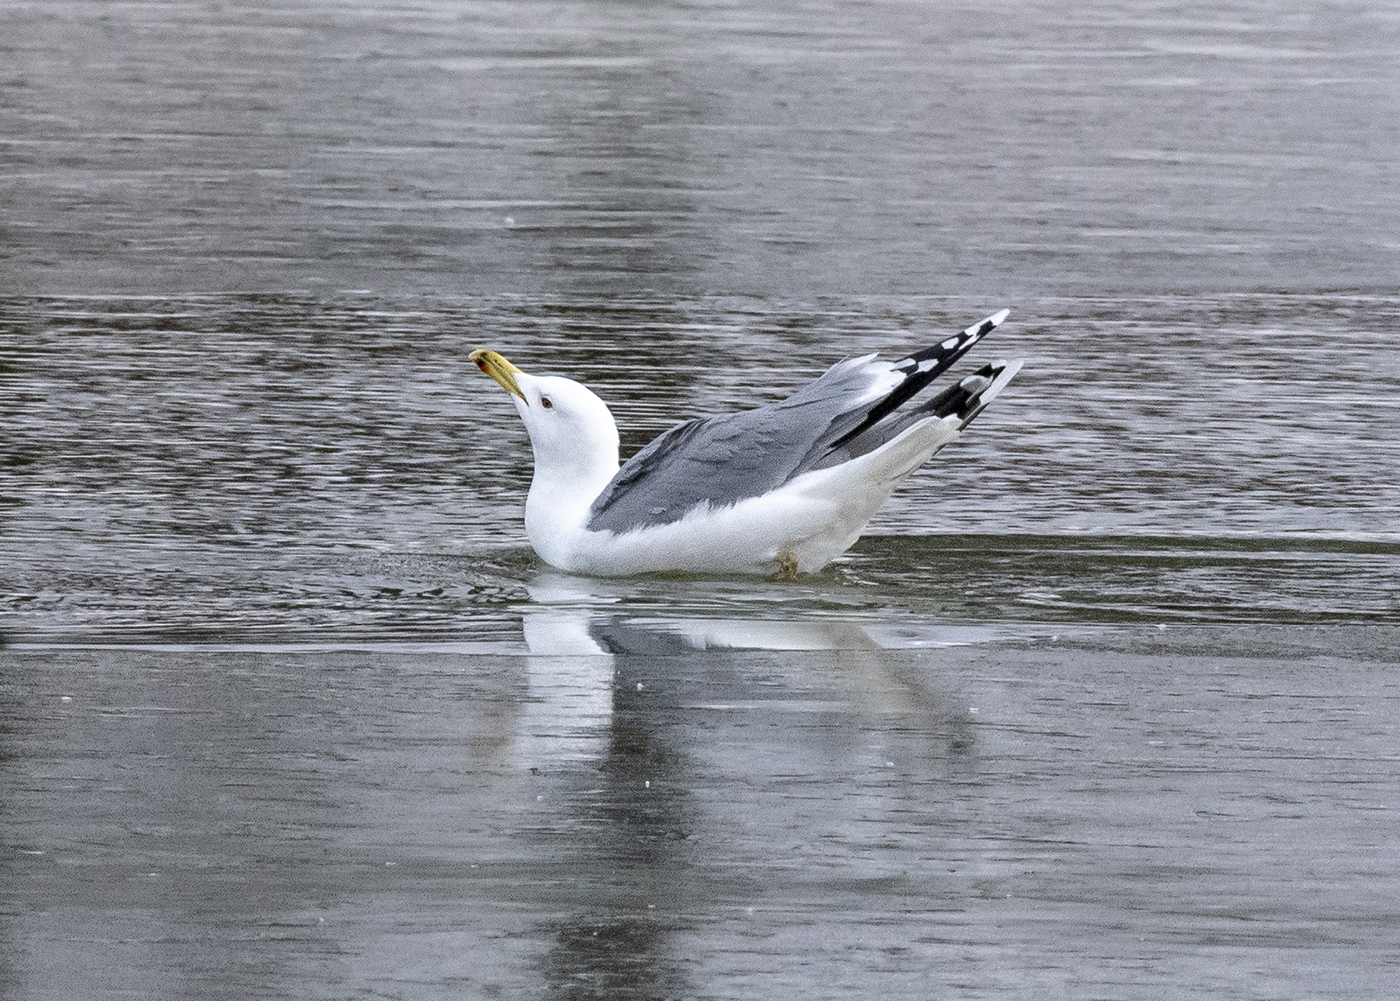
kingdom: Animalia
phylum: Chordata
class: Aves
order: Charadriiformes
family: Laridae
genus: Larus
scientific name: Larus cachinnans
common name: Caspian gull
